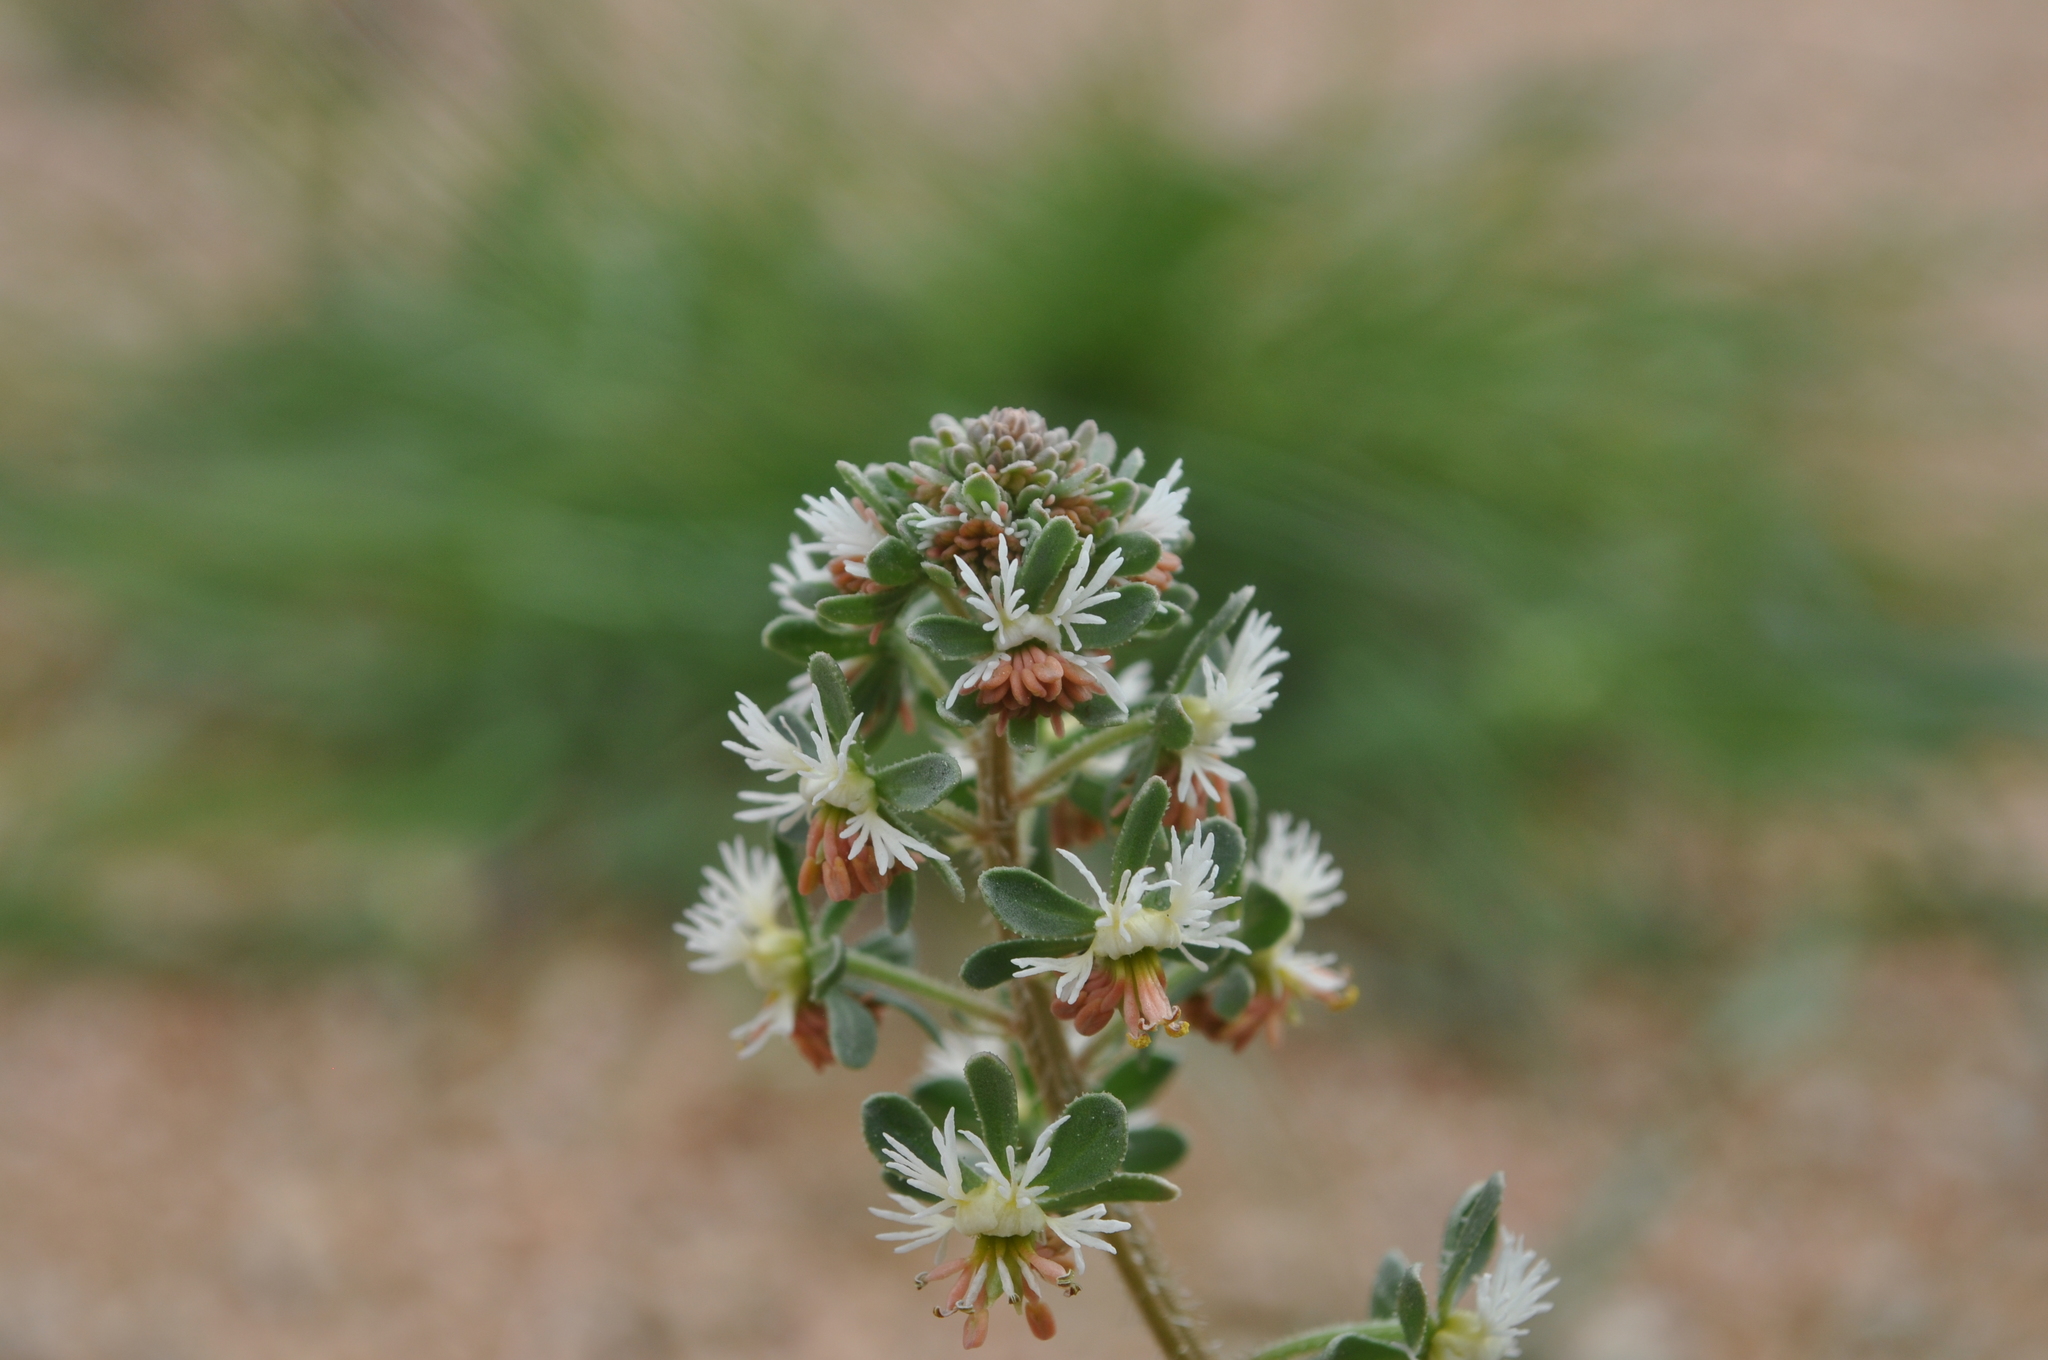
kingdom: Plantae
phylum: Tracheophyta
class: Magnoliopsida
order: Brassicales
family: Resedaceae
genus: Reseda
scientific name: Reseda phyteuma
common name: Corn mignonette
